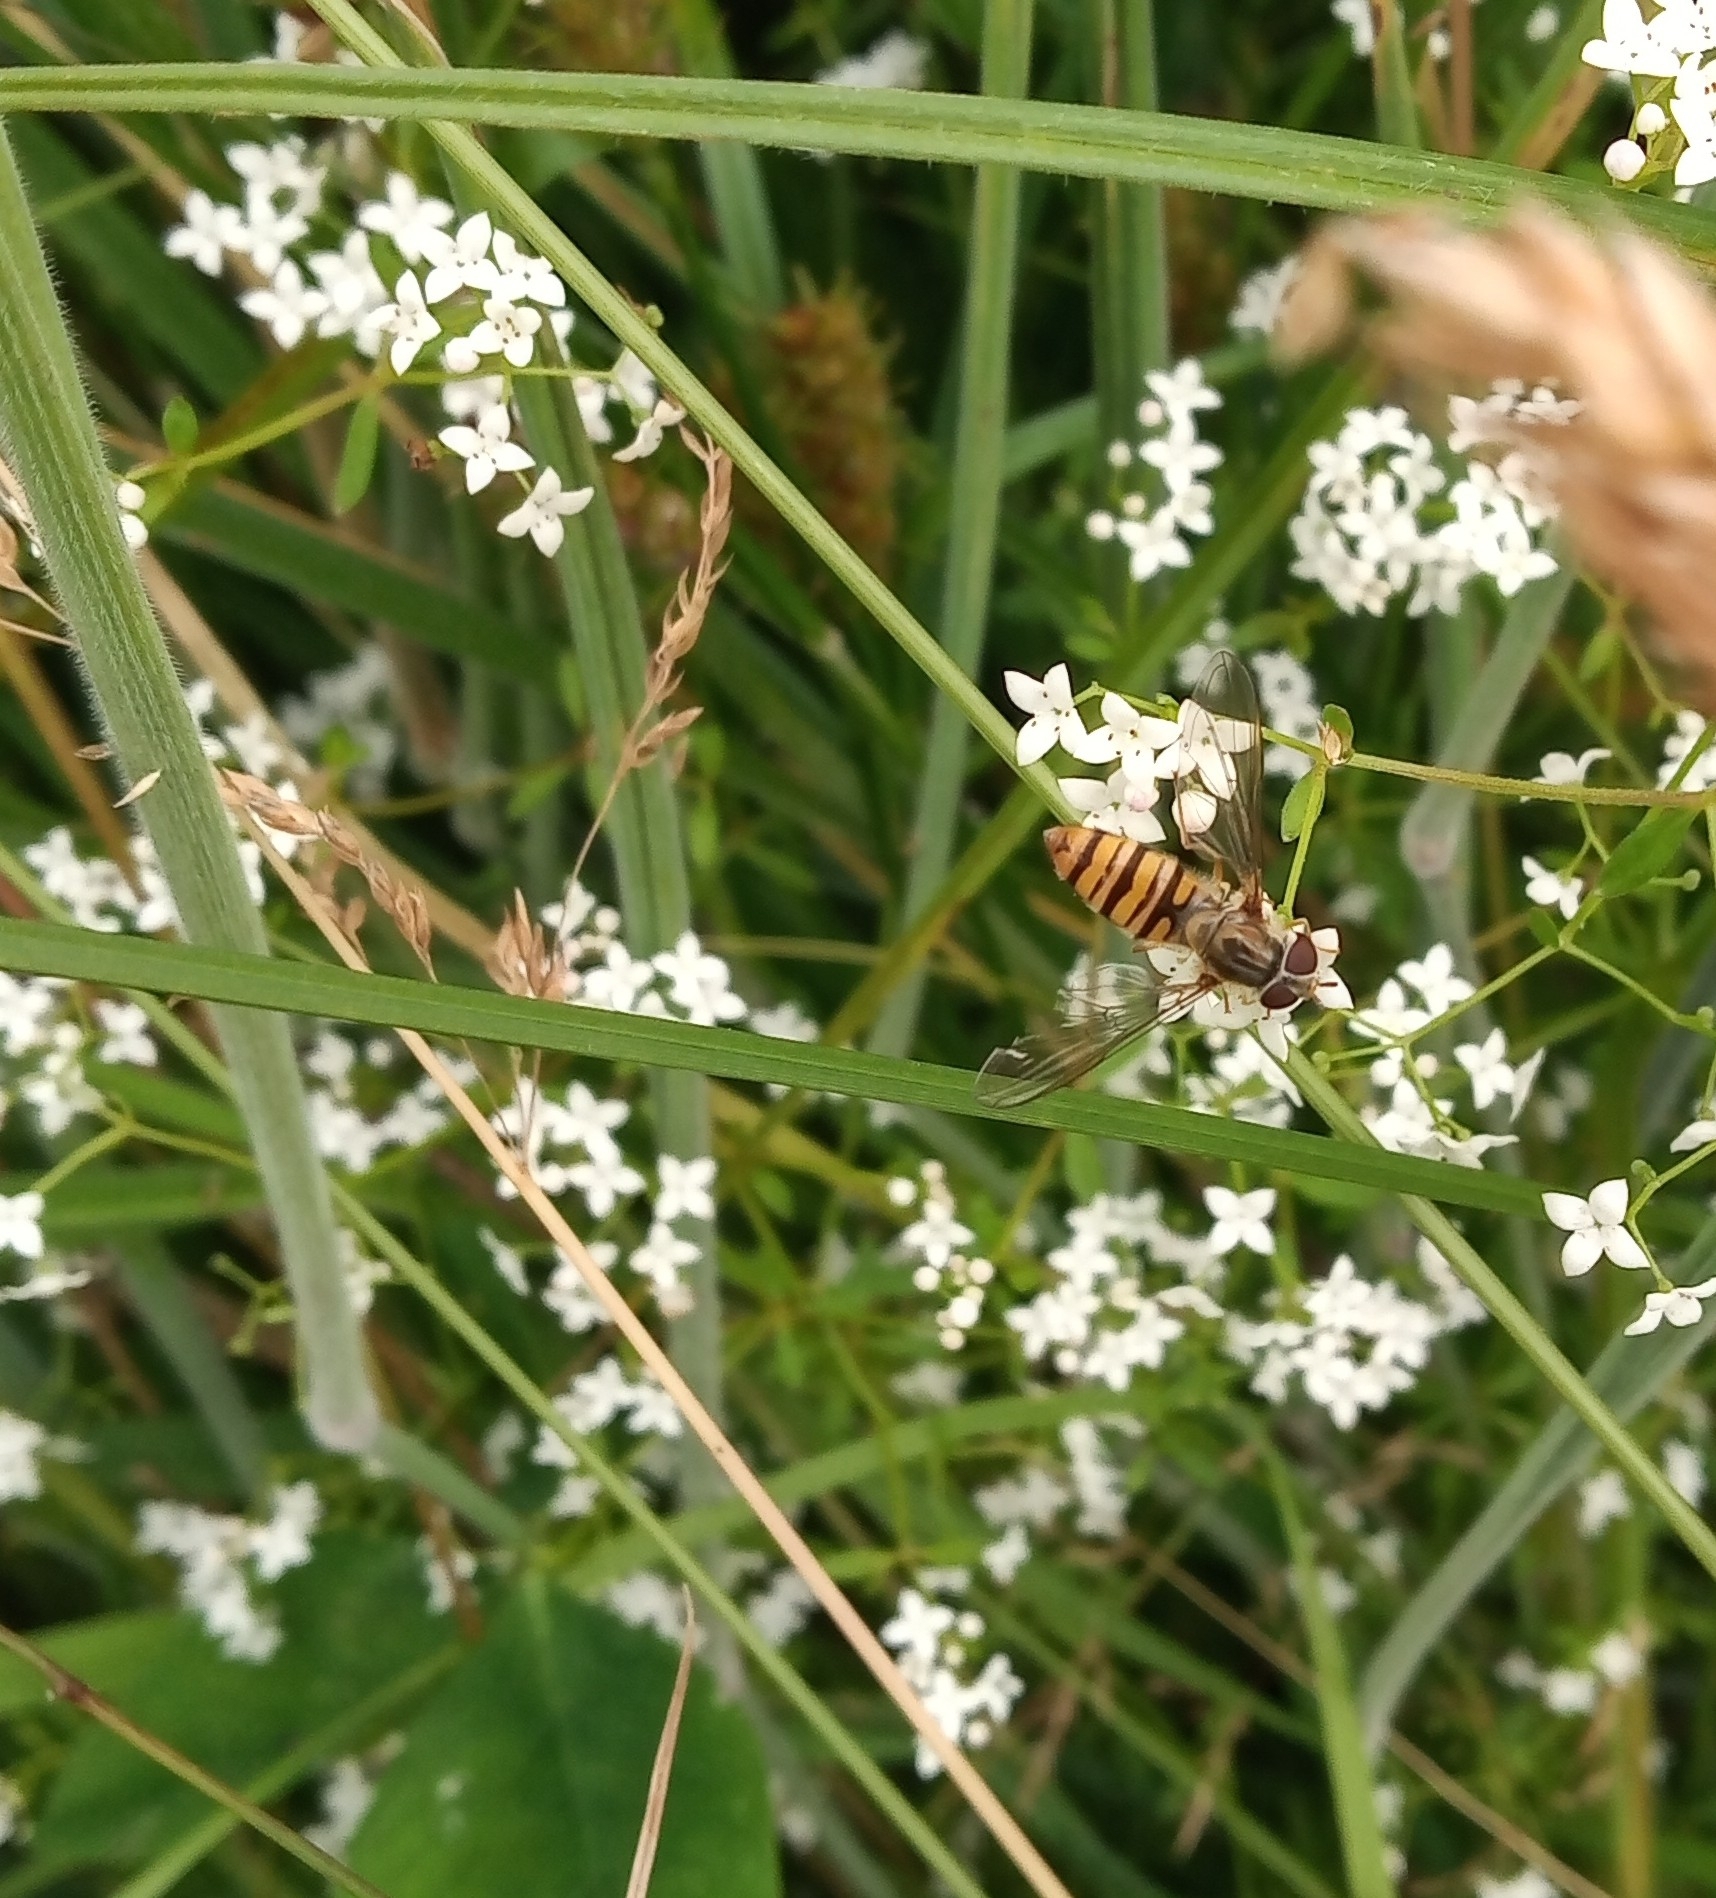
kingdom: Animalia
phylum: Arthropoda
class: Insecta
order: Diptera
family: Syrphidae
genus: Episyrphus
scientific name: Episyrphus balteatus
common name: Marmalade hoverfly
